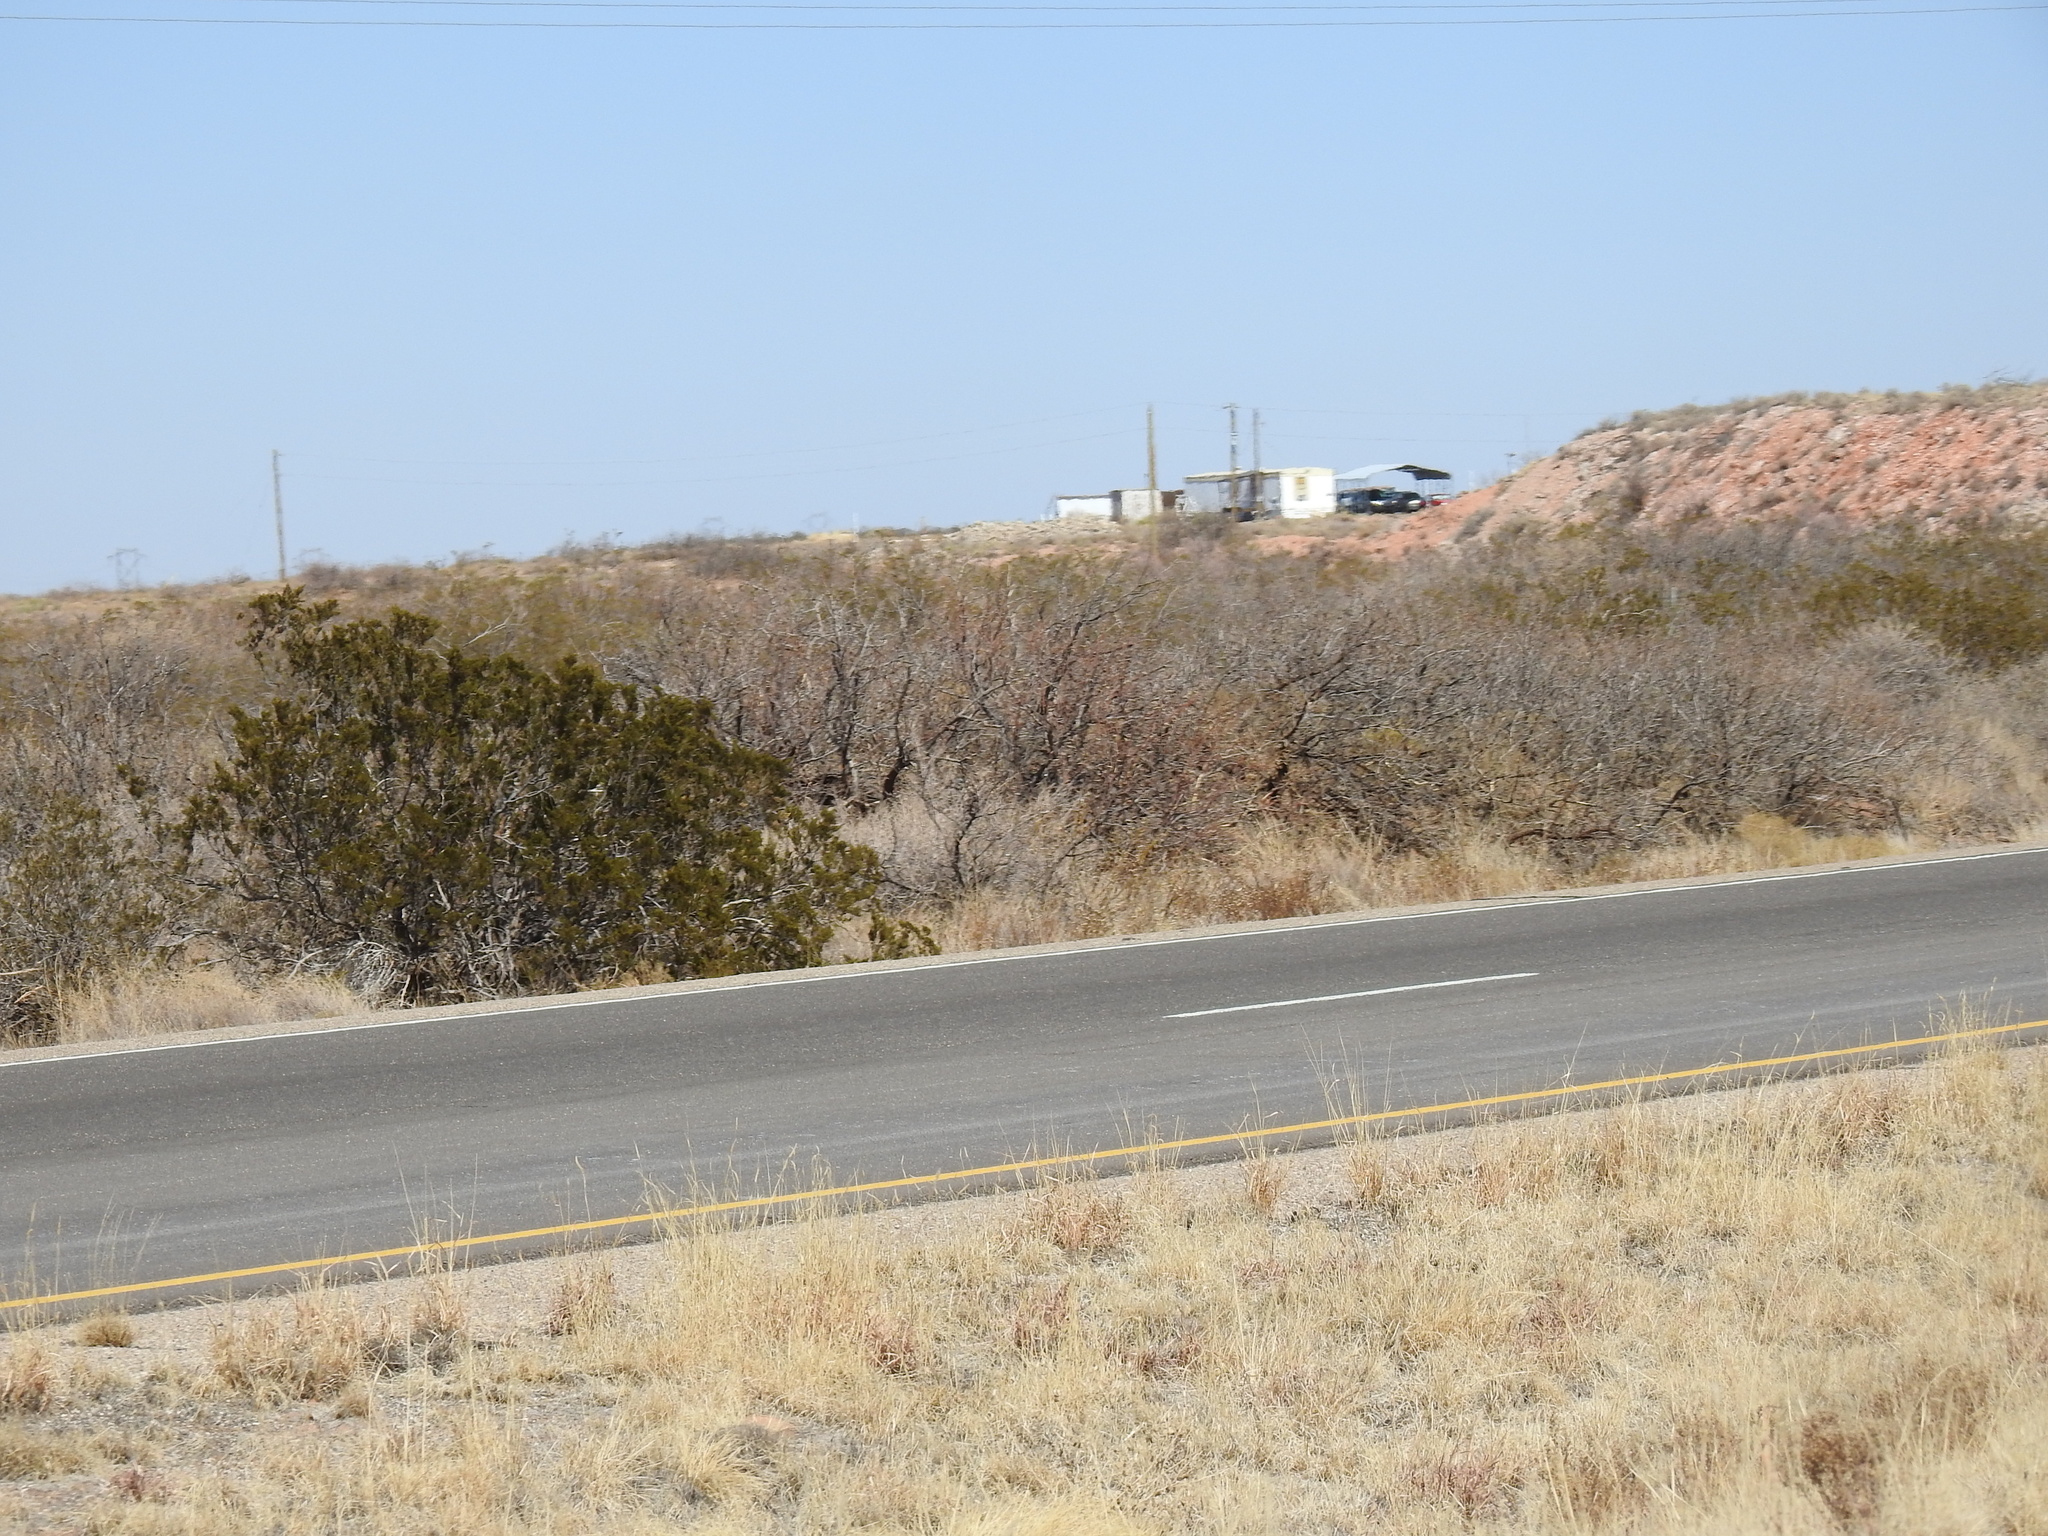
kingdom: Plantae
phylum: Tracheophyta
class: Magnoliopsida
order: Zygophyllales
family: Zygophyllaceae
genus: Larrea
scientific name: Larrea tridentata
